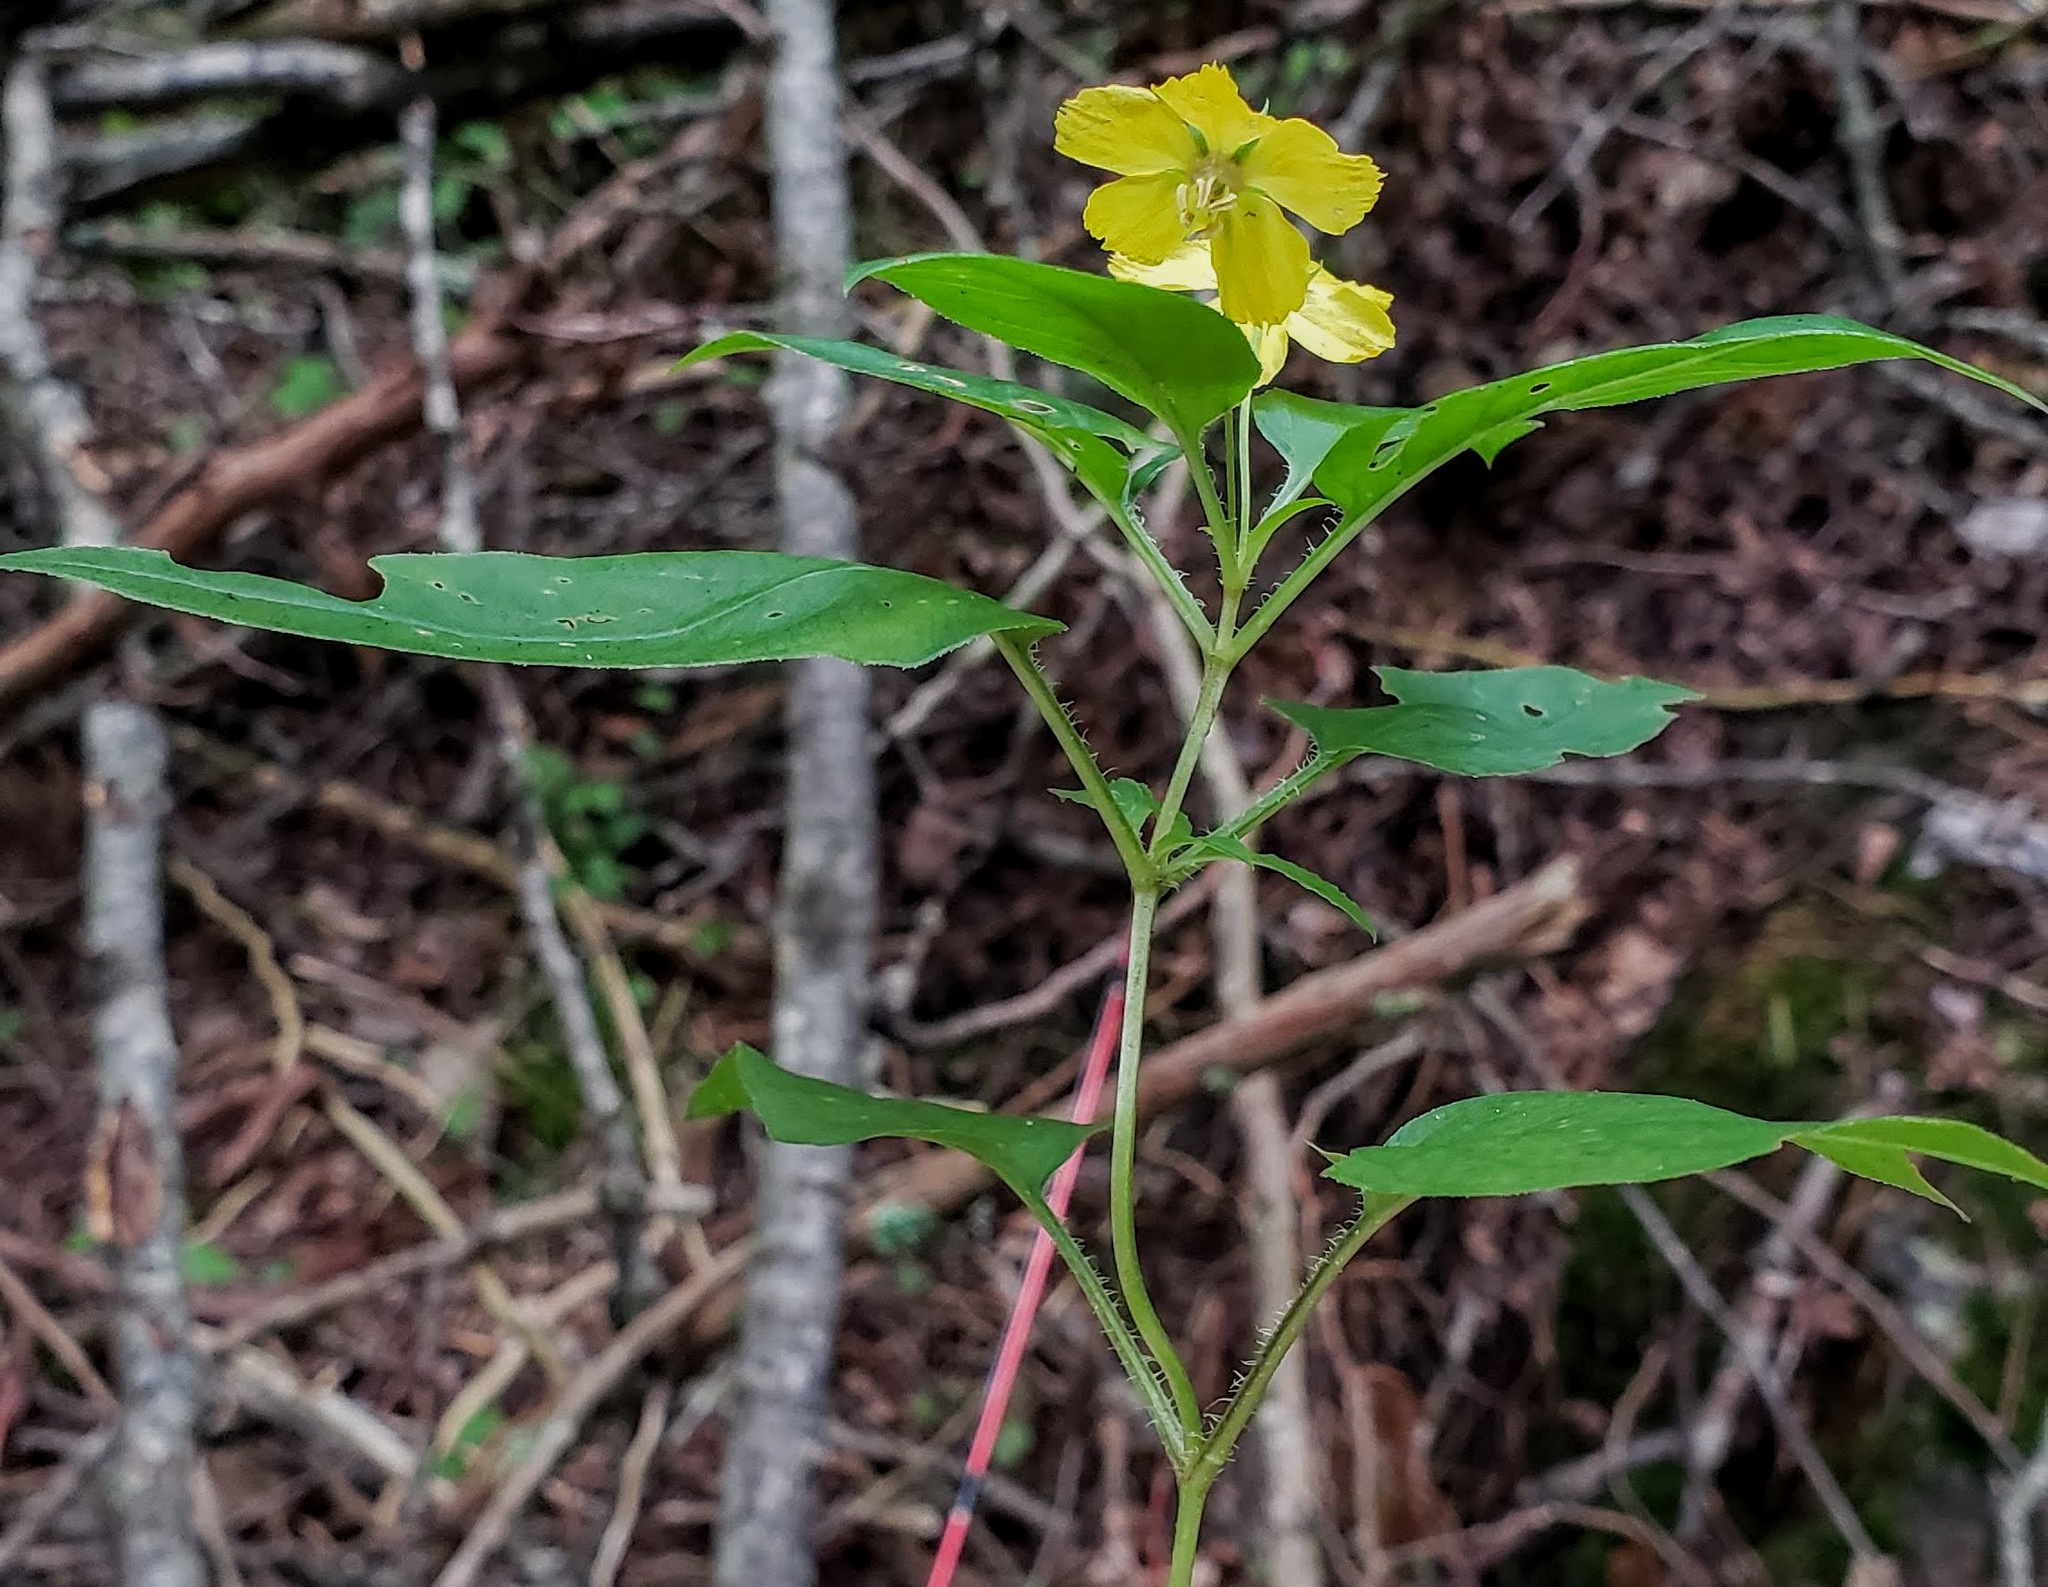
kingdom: Plantae
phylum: Tracheophyta
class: Magnoliopsida
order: Ericales
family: Primulaceae
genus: Lysimachia
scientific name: Lysimachia ciliata
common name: Fringed loosestrife
